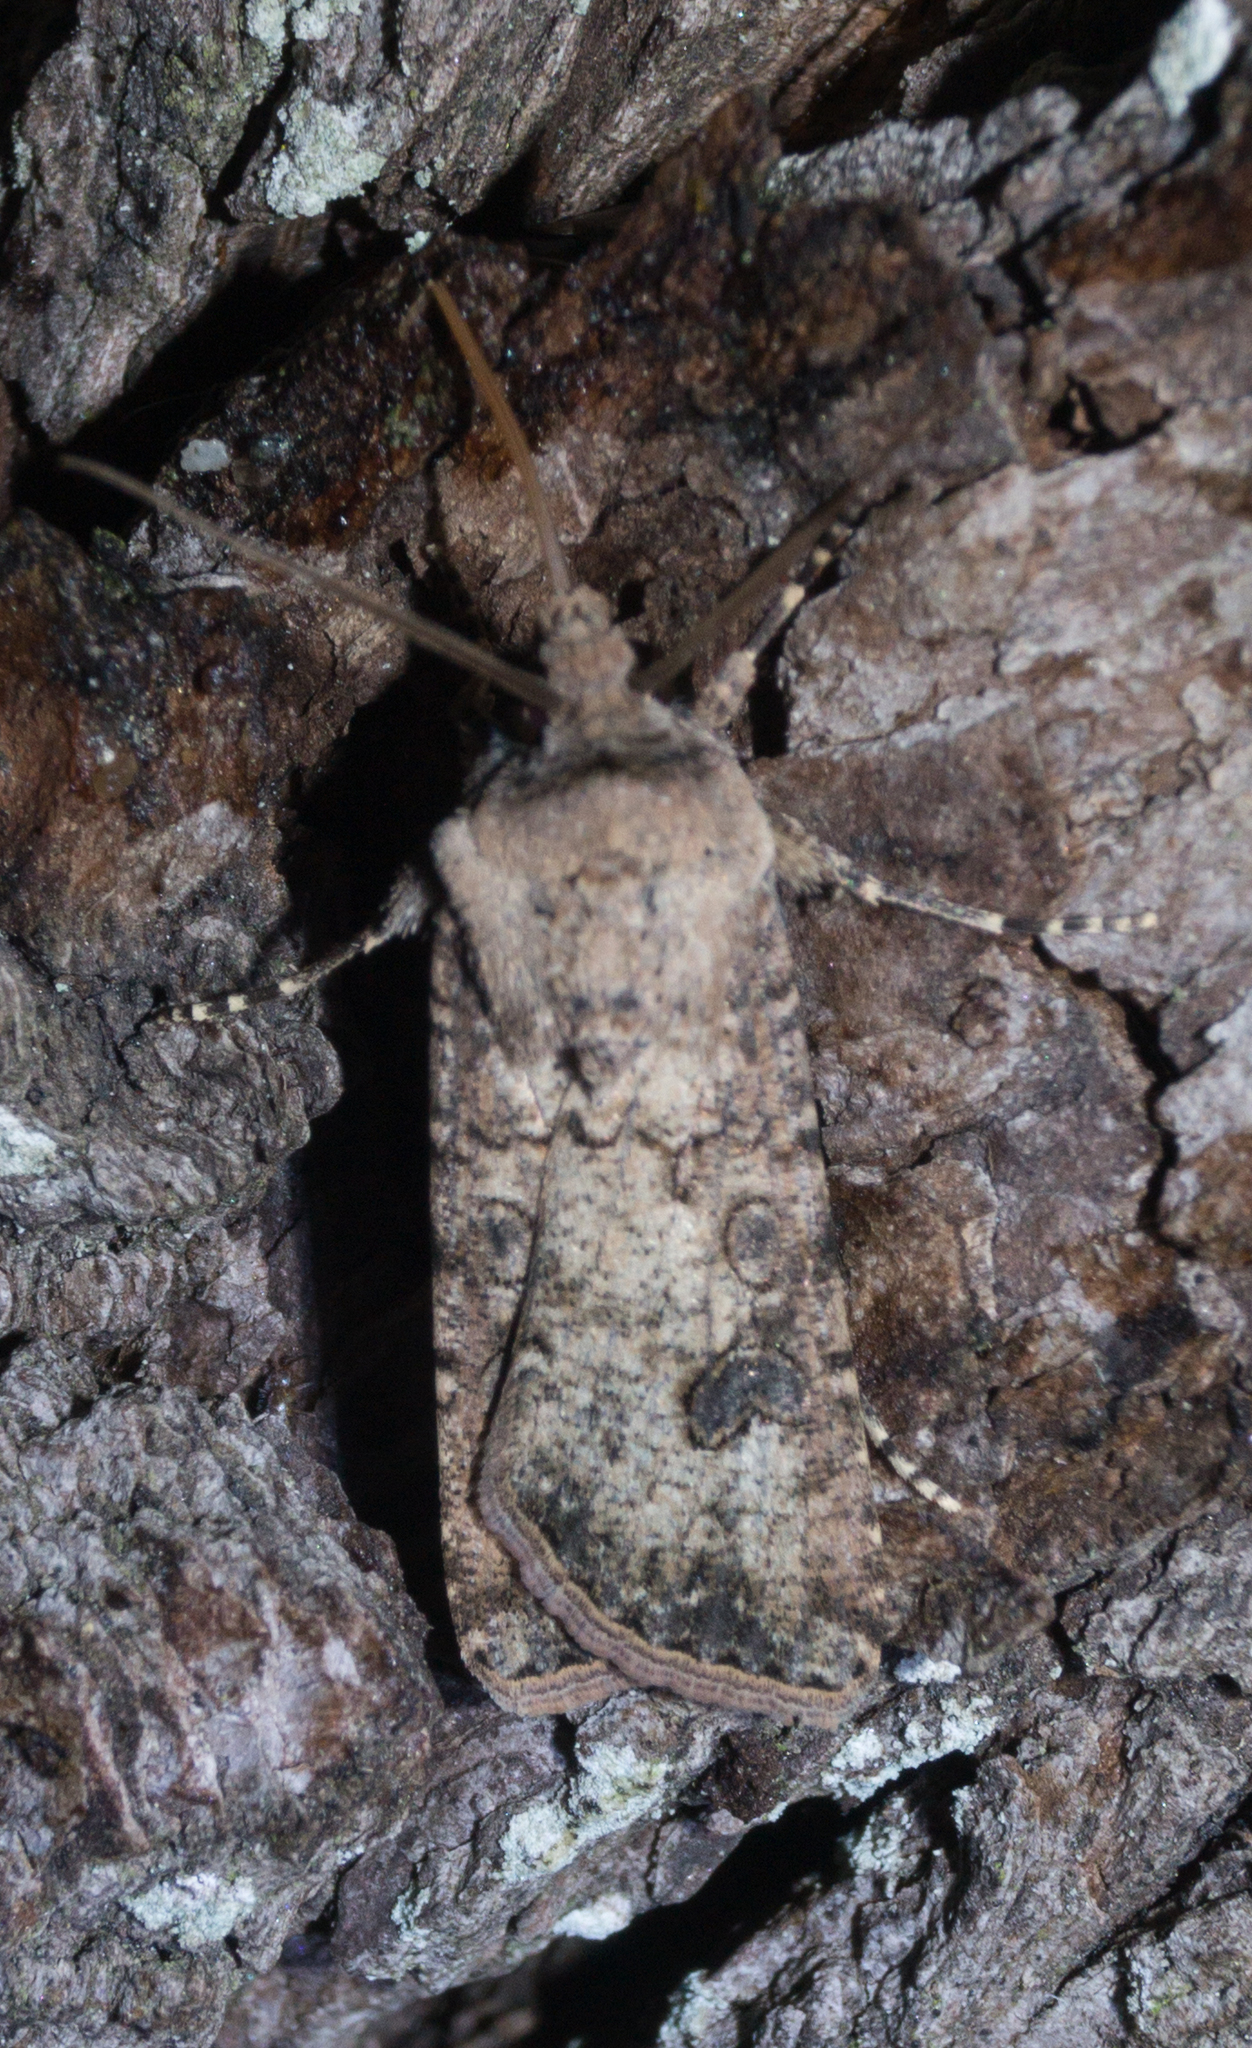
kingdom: Animalia
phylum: Arthropoda
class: Insecta
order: Lepidoptera
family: Noctuidae
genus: Agrotis
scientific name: Agrotis segetum
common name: Turnip moth
